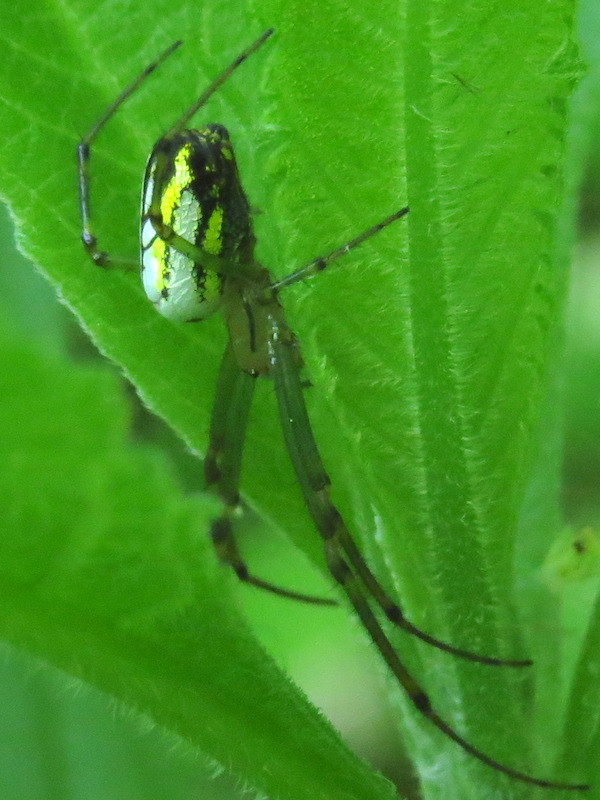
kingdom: Animalia
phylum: Arthropoda
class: Arachnida
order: Araneae
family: Tetragnathidae
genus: Leucauge
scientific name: Leucauge venusta
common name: Longjawed orb weavers
